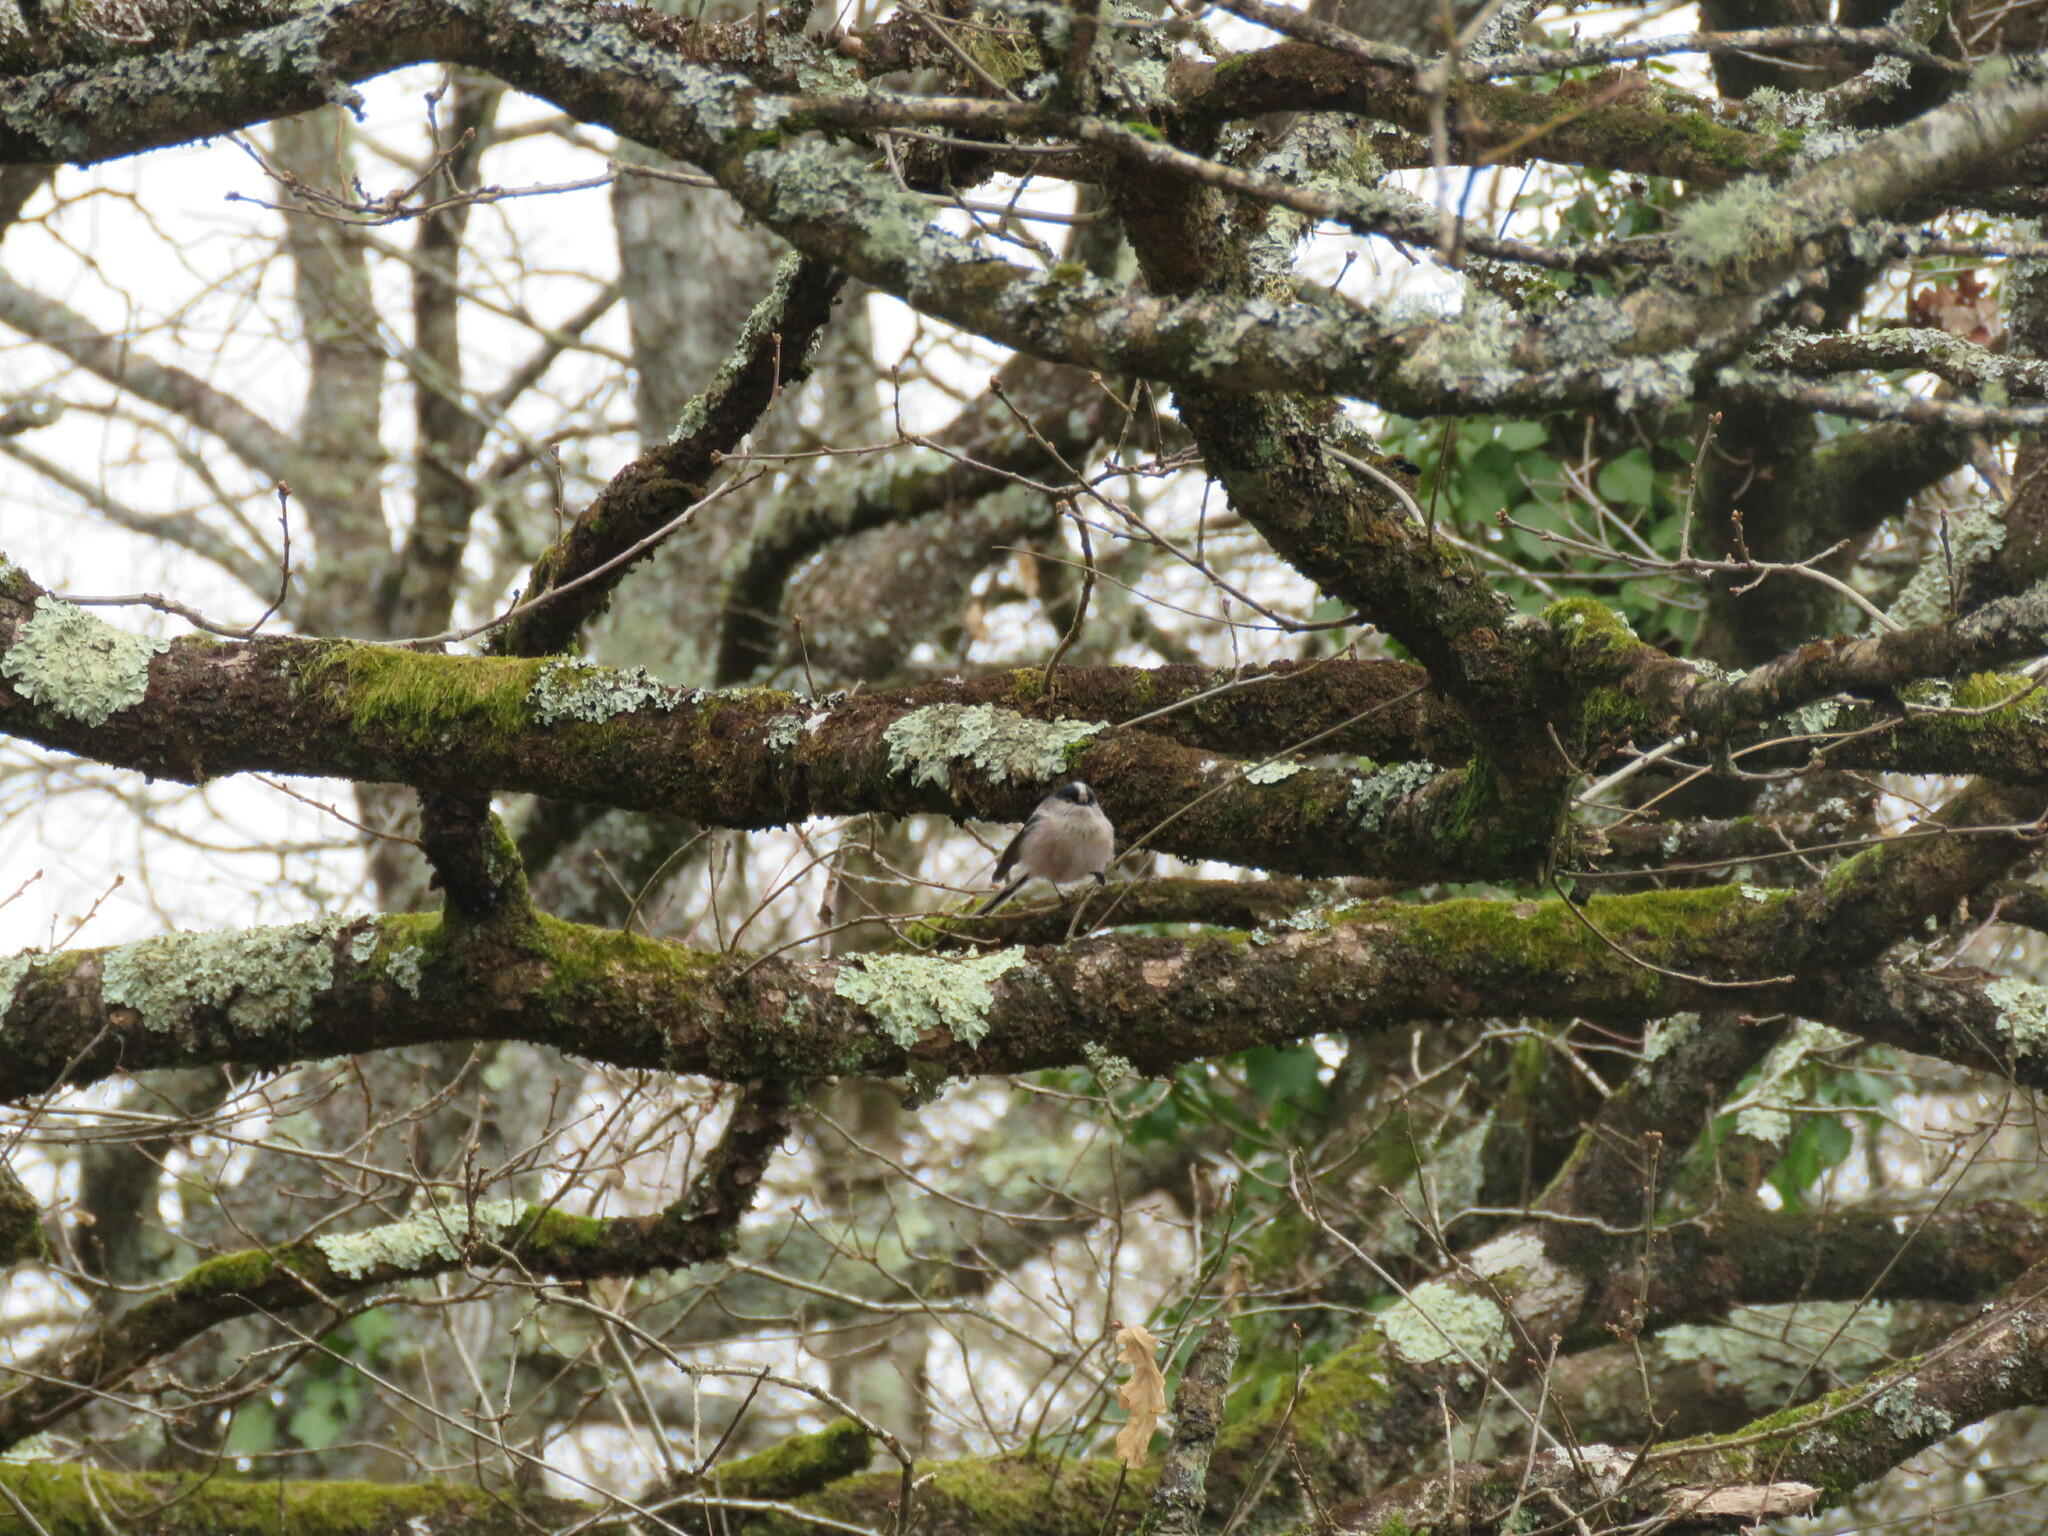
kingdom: Animalia
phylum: Chordata
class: Aves
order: Passeriformes
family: Aegithalidae
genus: Aegithalos
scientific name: Aegithalos caudatus
